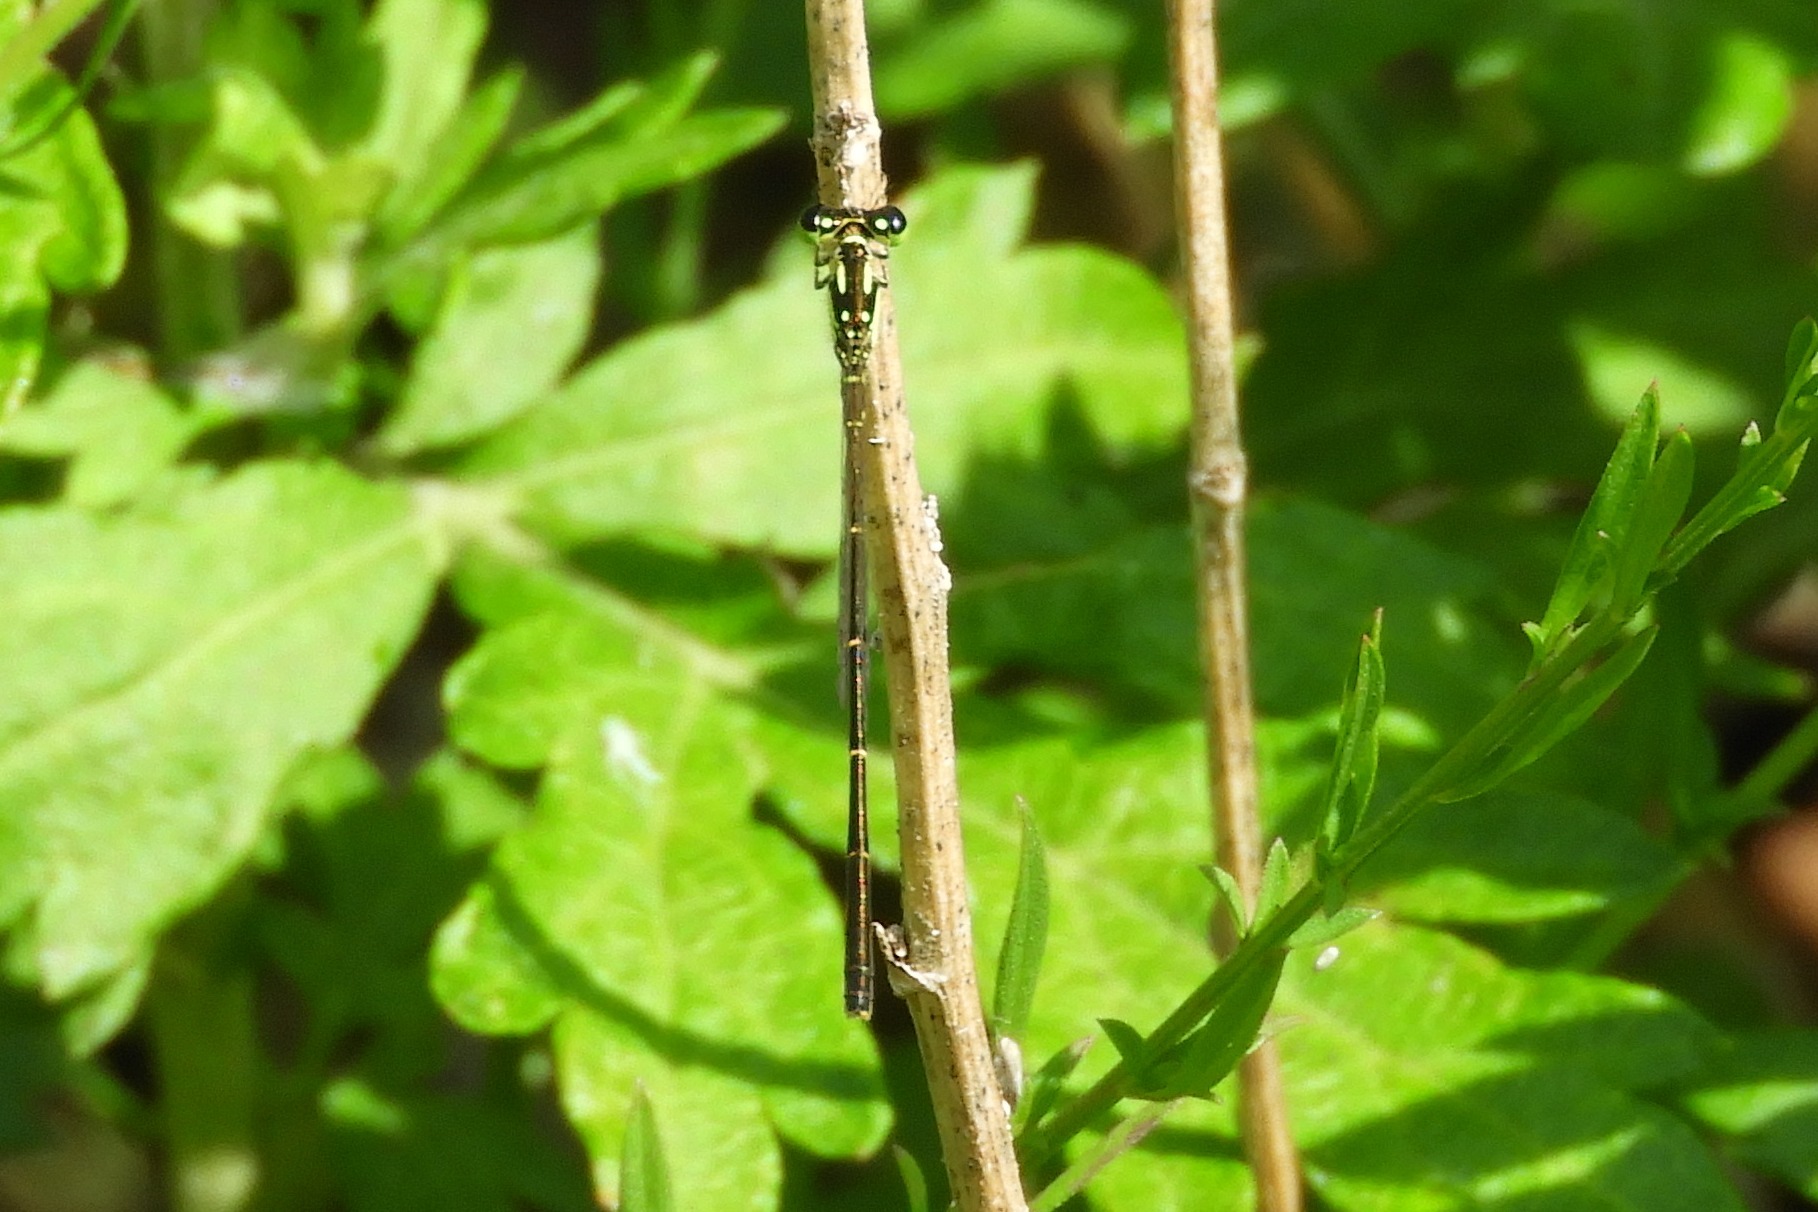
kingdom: Animalia
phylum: Arthropoda
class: Insecta
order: Odonata
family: Coenagrionidae
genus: Ischnura
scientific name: Ischnura posita
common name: Fragile forktail
